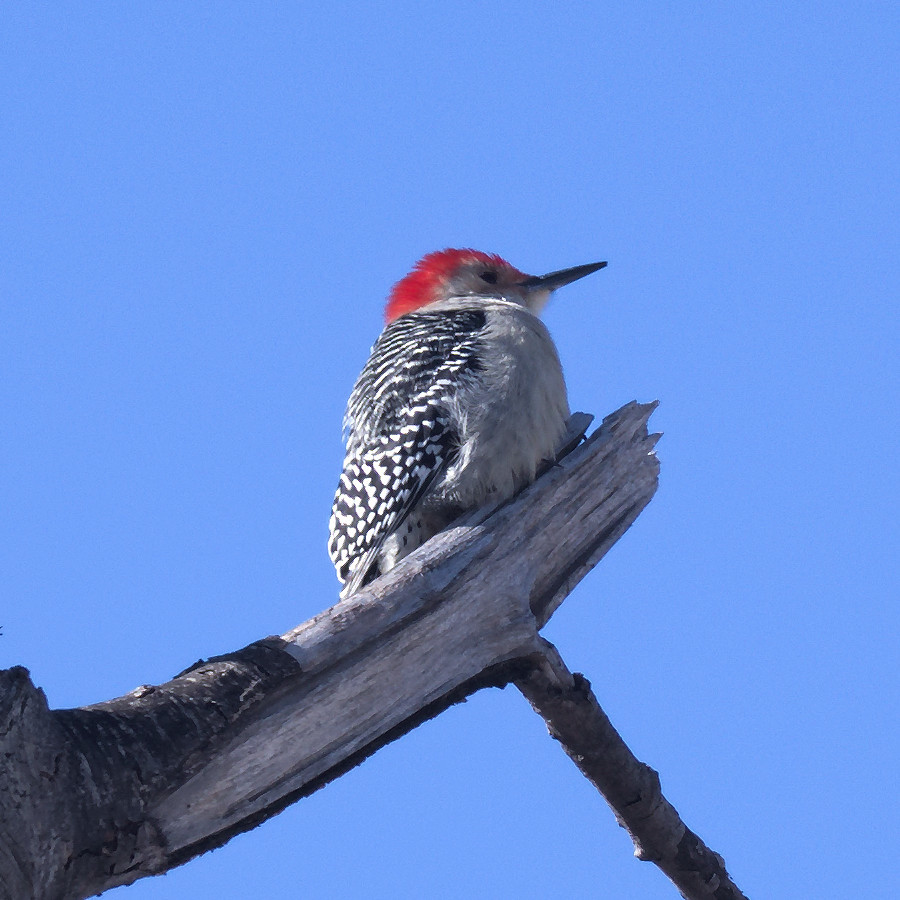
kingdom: Animalia
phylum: Chordata
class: Aves
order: Piciformes
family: Picidae
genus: Melanerpes
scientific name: Melanerpes carolinus
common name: Red-bellied woodpecker
